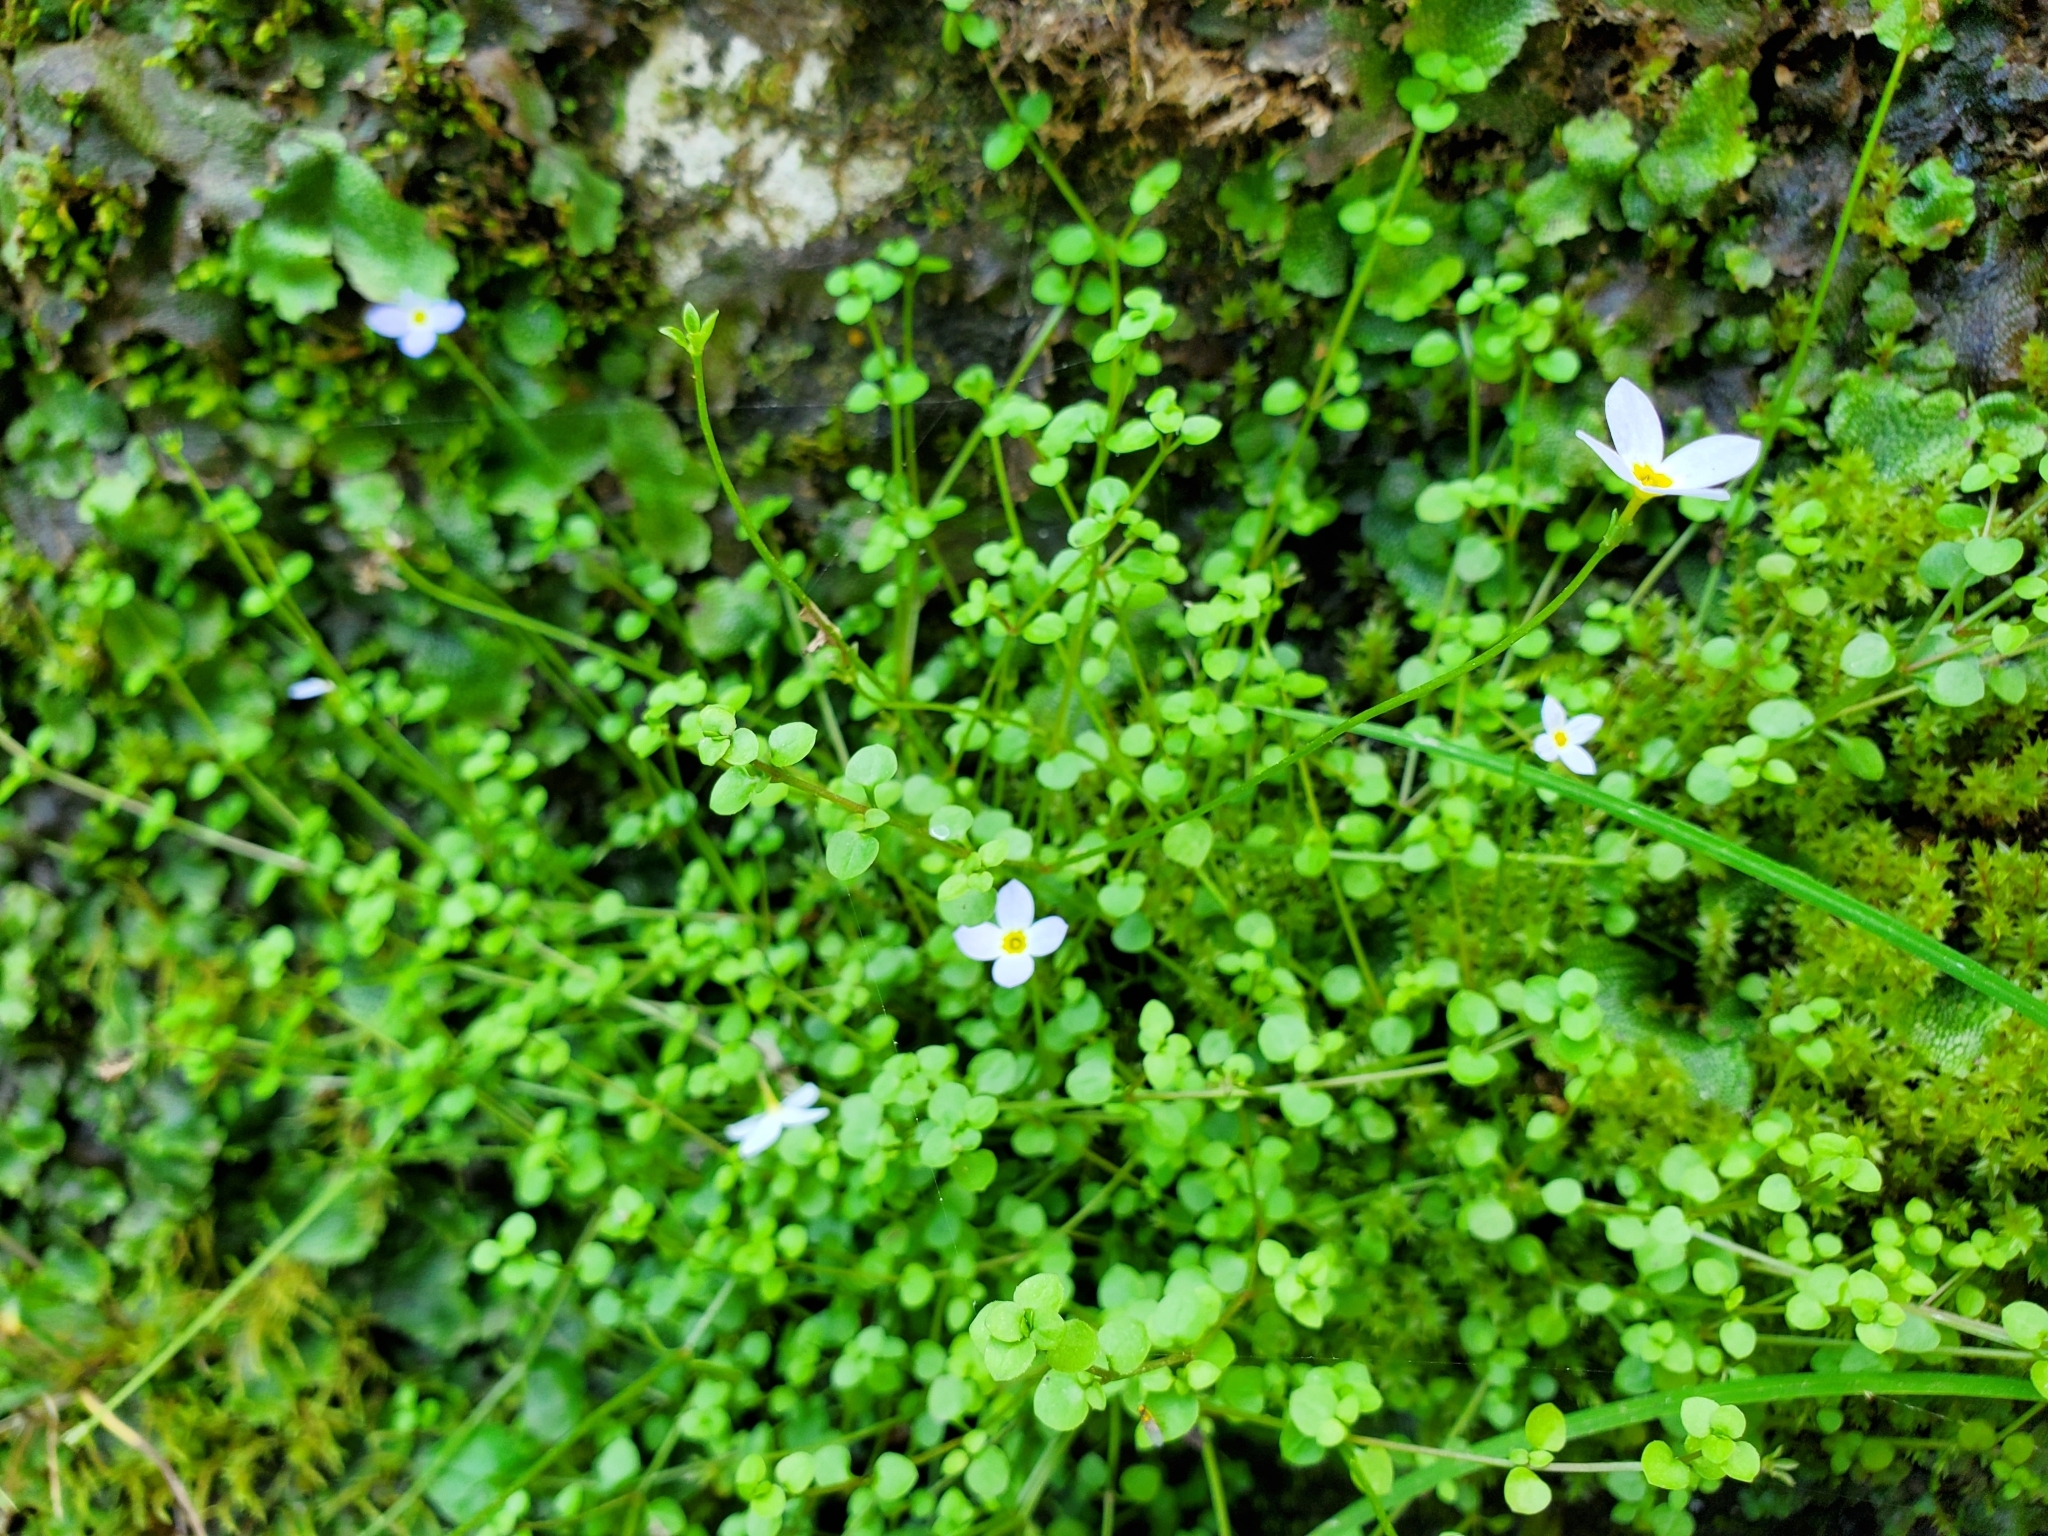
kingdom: Plantae
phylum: Tracheophyta
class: Magnoliopsida
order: Gentianales
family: Rubiaceae
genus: Houstonia
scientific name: Houstonia serpyllifolia
